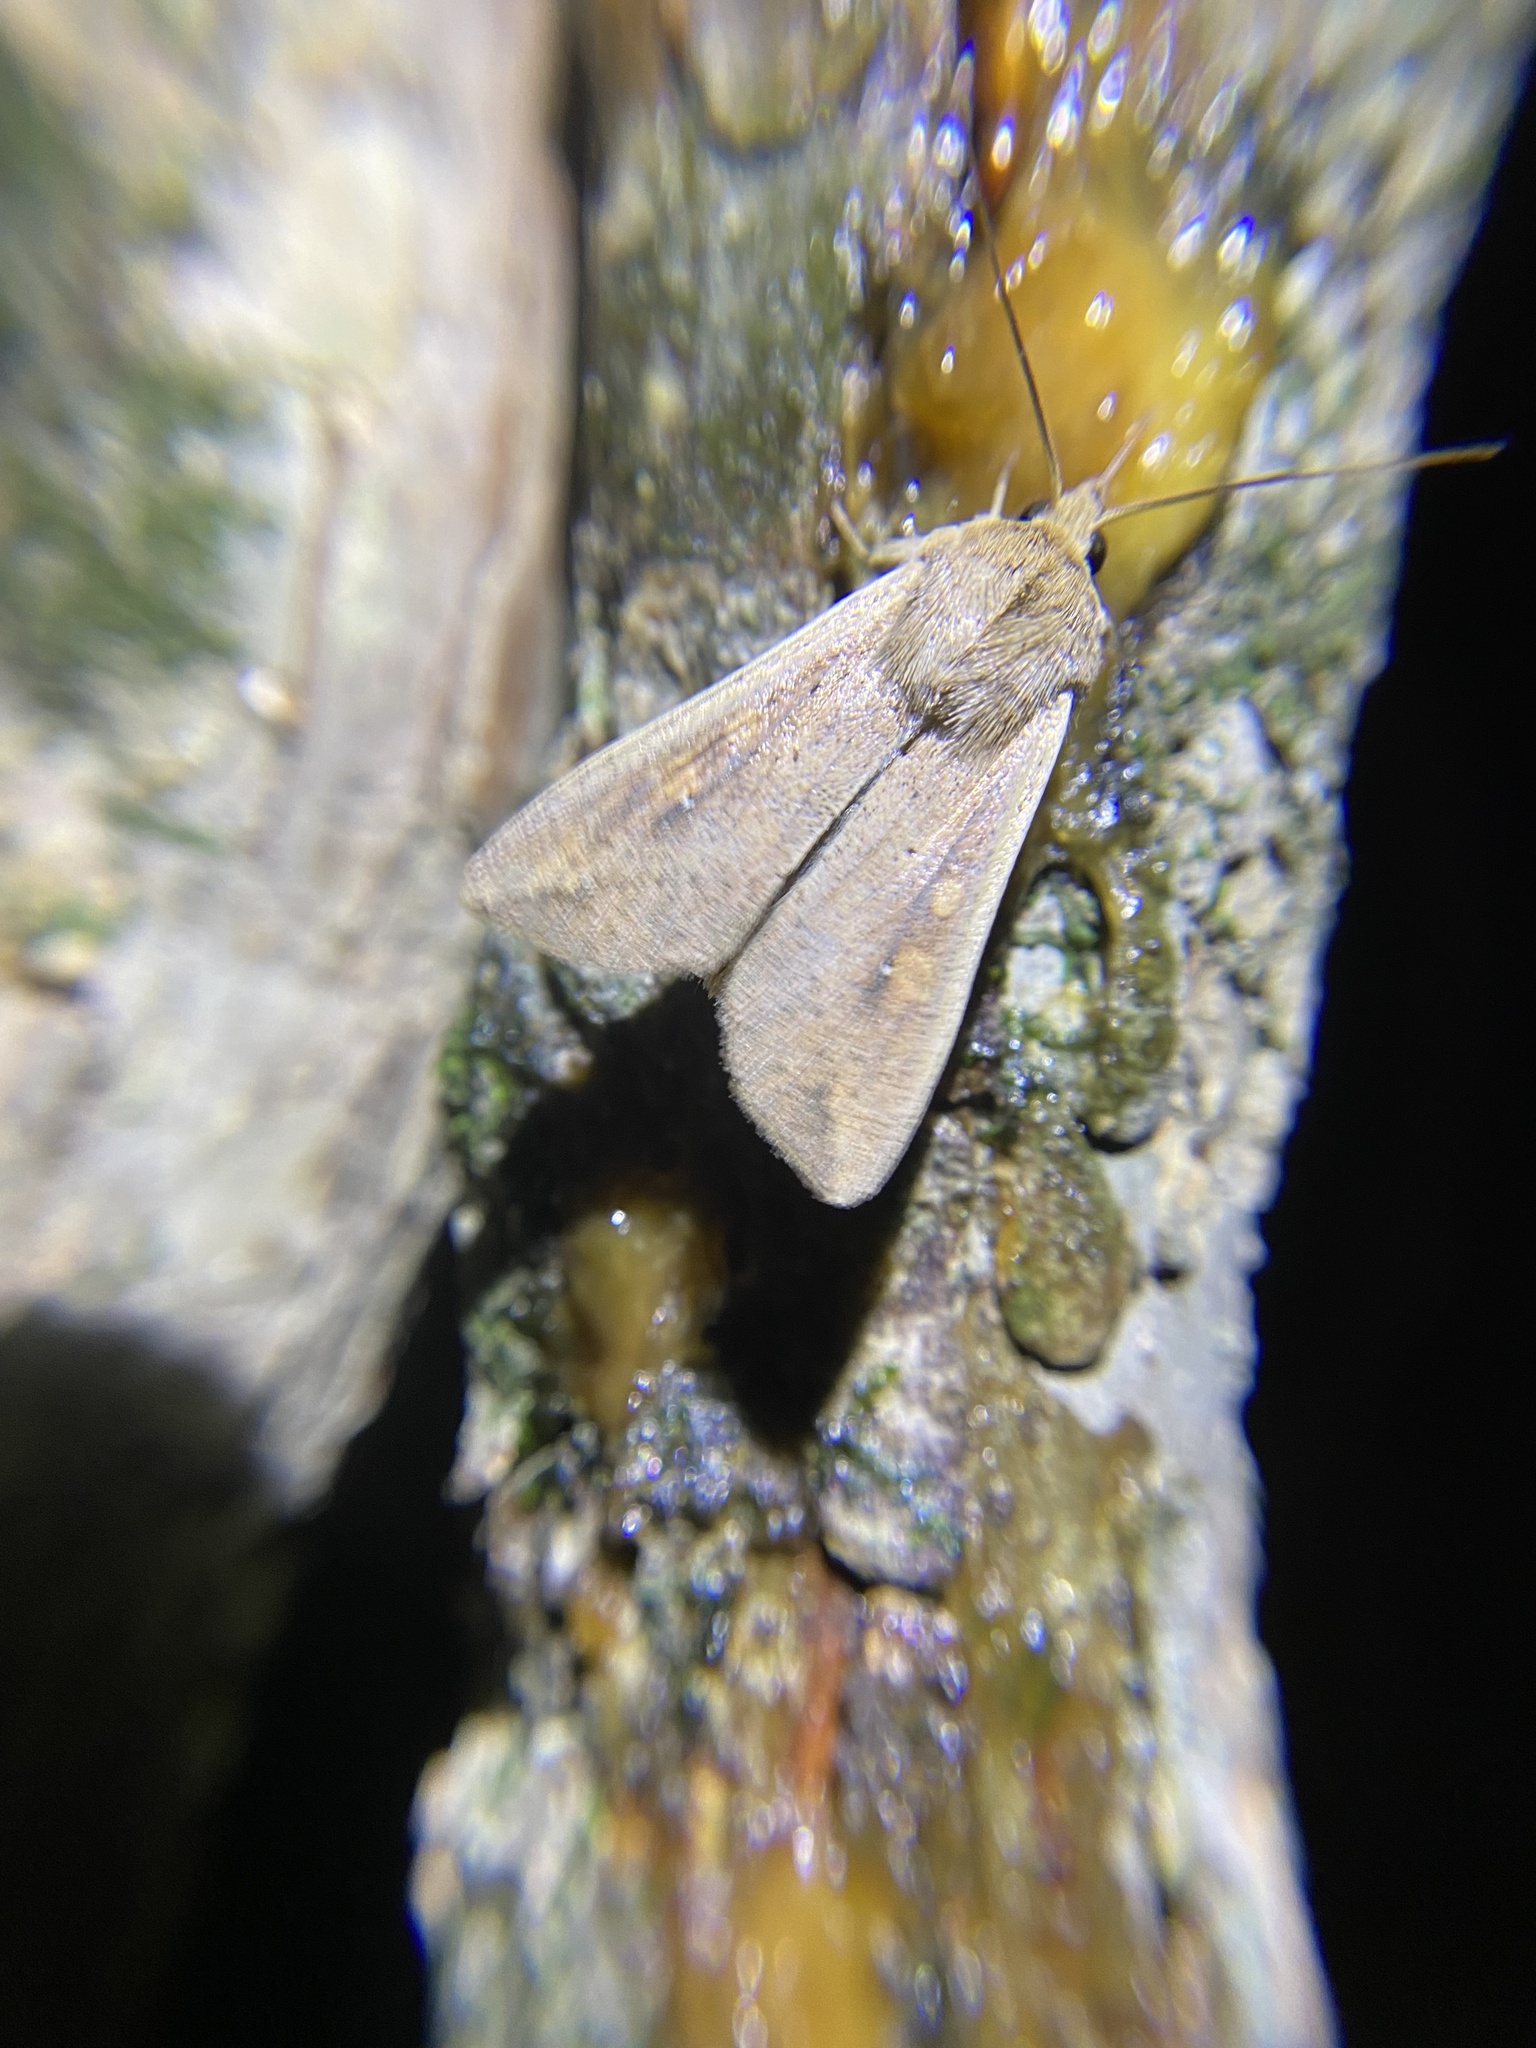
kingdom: Animalia
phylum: Arthropoda
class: Insecta
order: Lepidoptera
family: Noctuidae
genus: Mythimna
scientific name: Mythimna unipuncta
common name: White-speck
